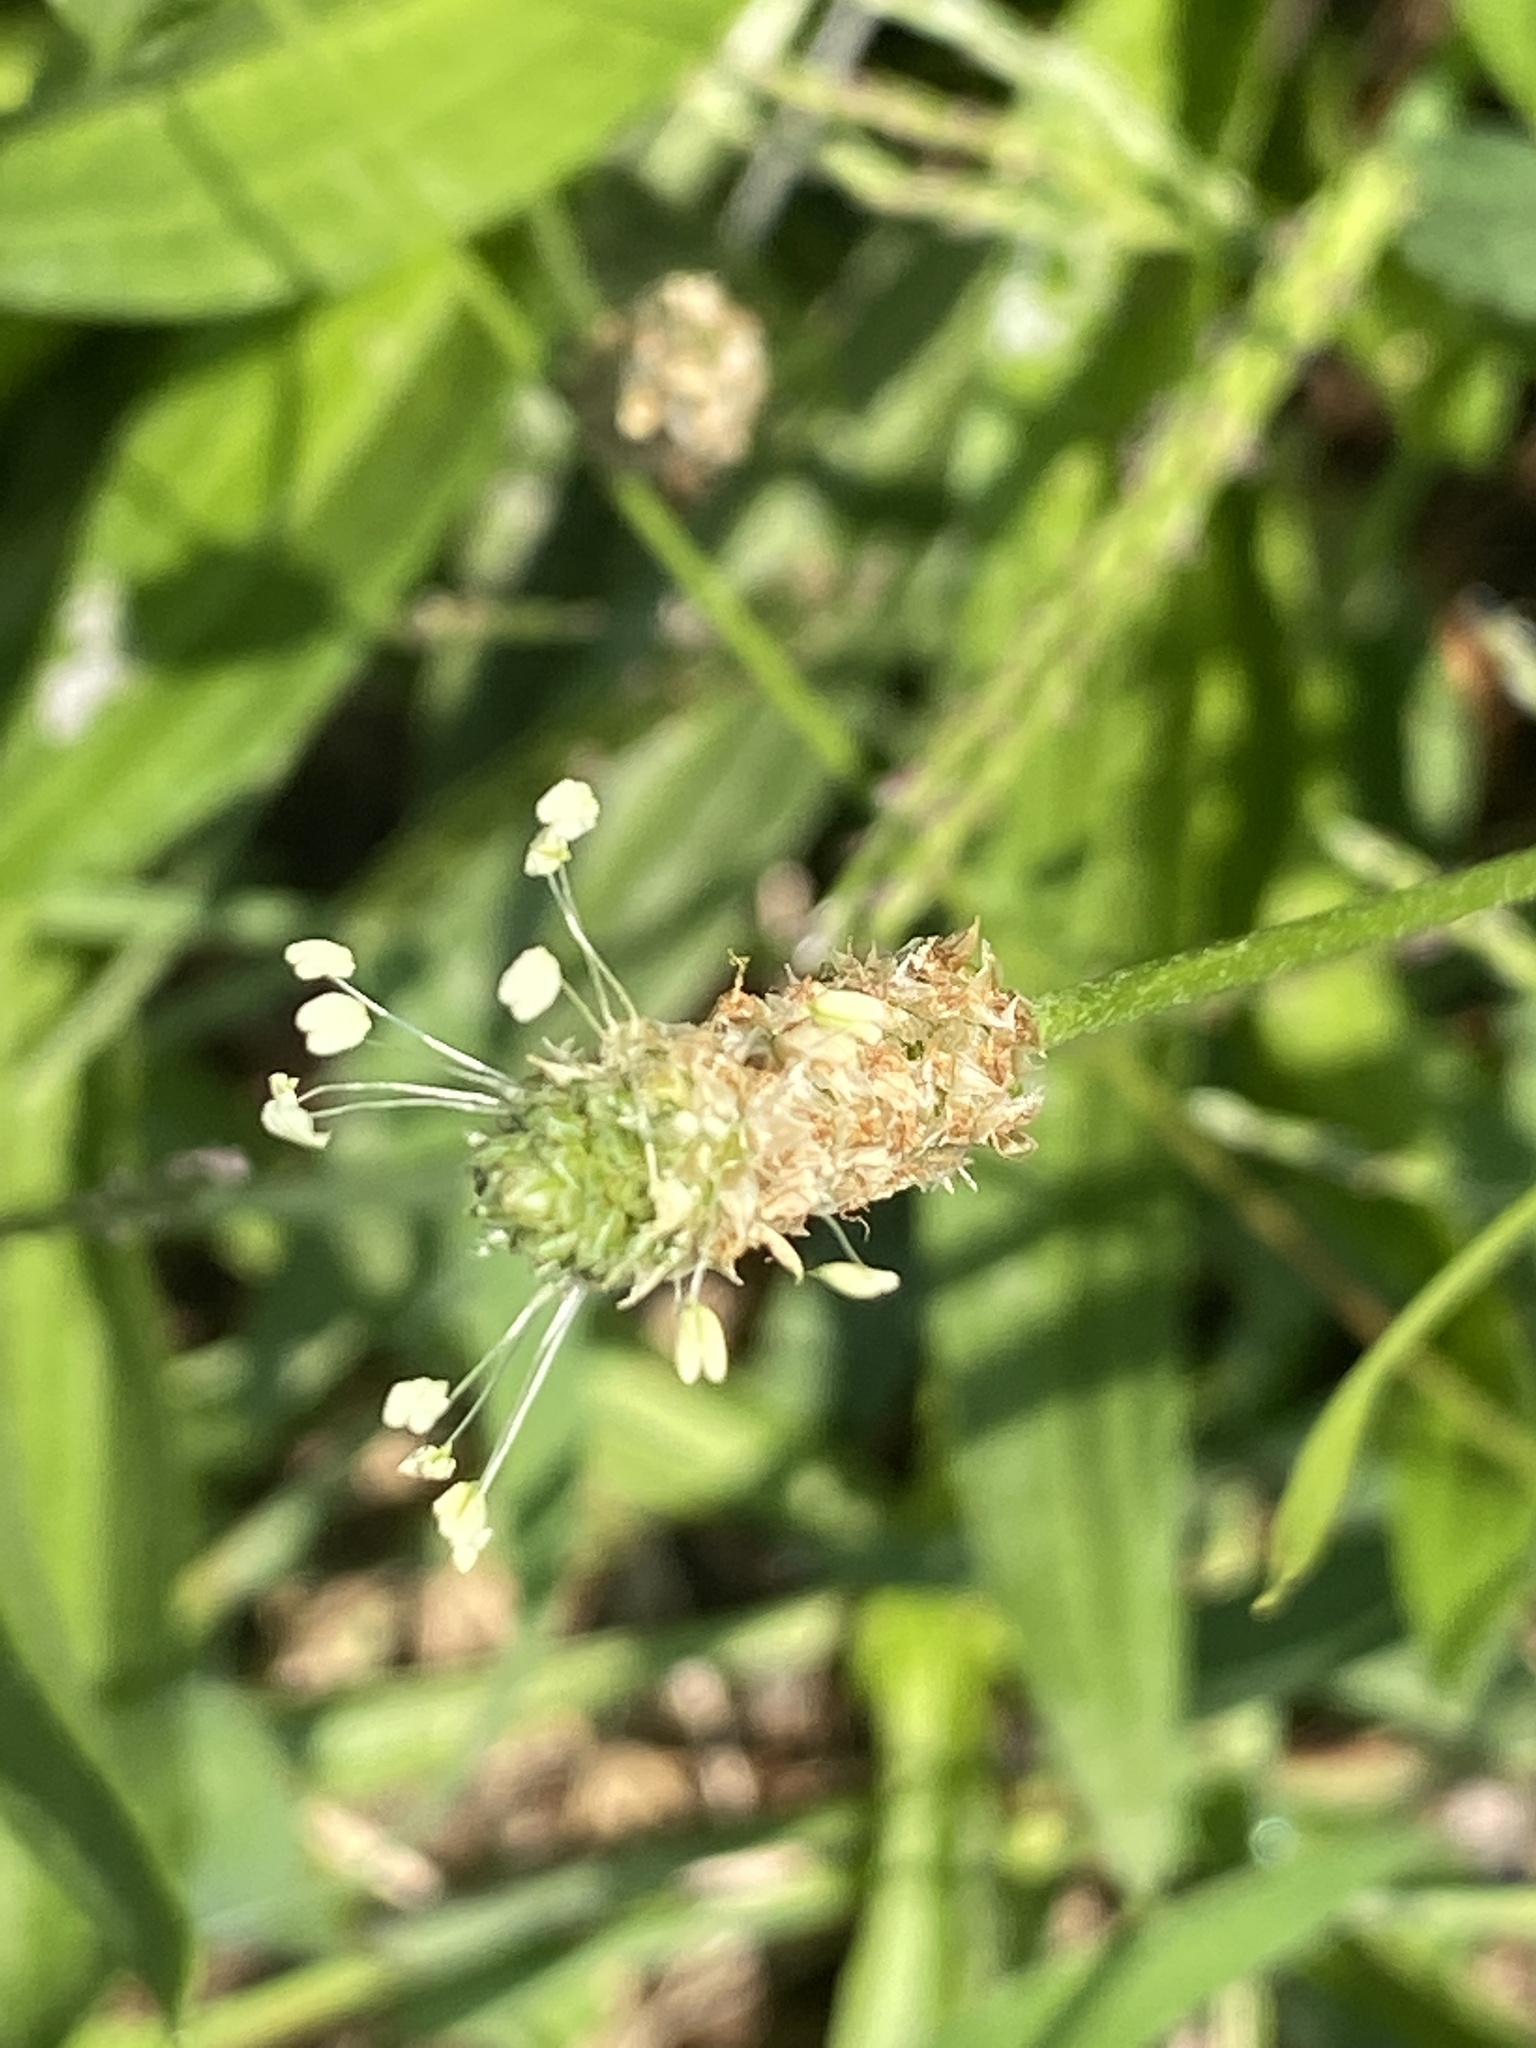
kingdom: Plantae
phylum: Tracheophyta
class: Magnoliopsida
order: Lamiales
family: Plantaginaceae
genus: Plantago
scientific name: Plantago lanceolata
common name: Ribwort plantain
